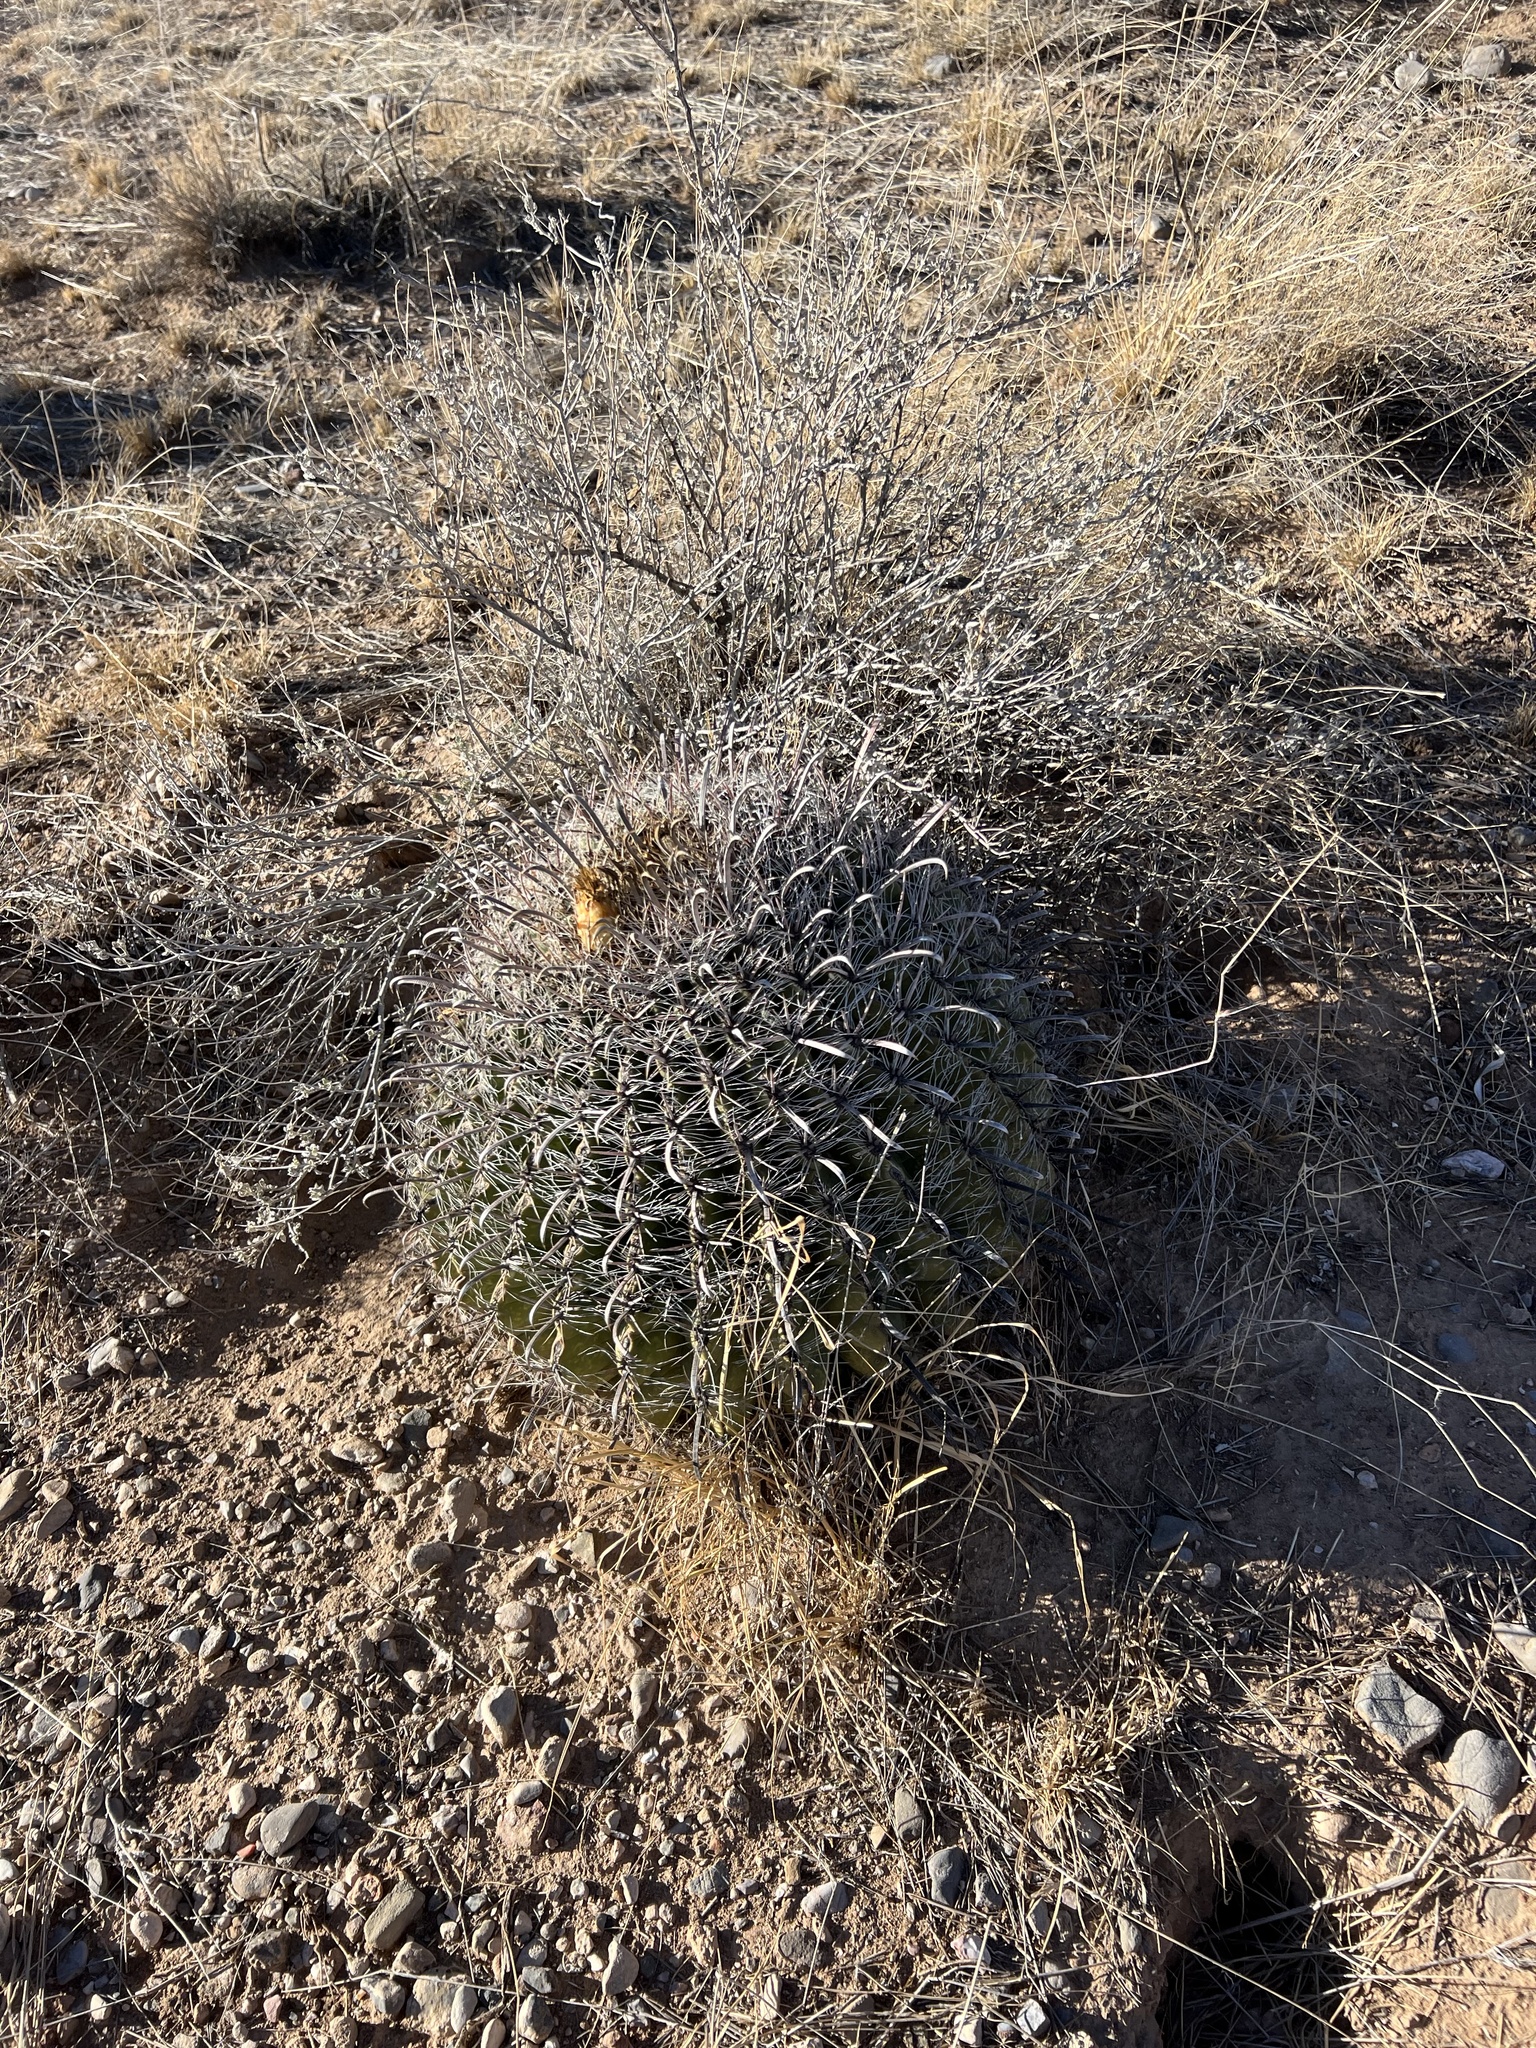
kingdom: Plantae
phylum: Tracheophyta
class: Magnoliopsida
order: Caryophyllales
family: Cactaceae
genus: Ferocactus
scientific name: Ferocactus wislizeni
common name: Candy barrel cactus
